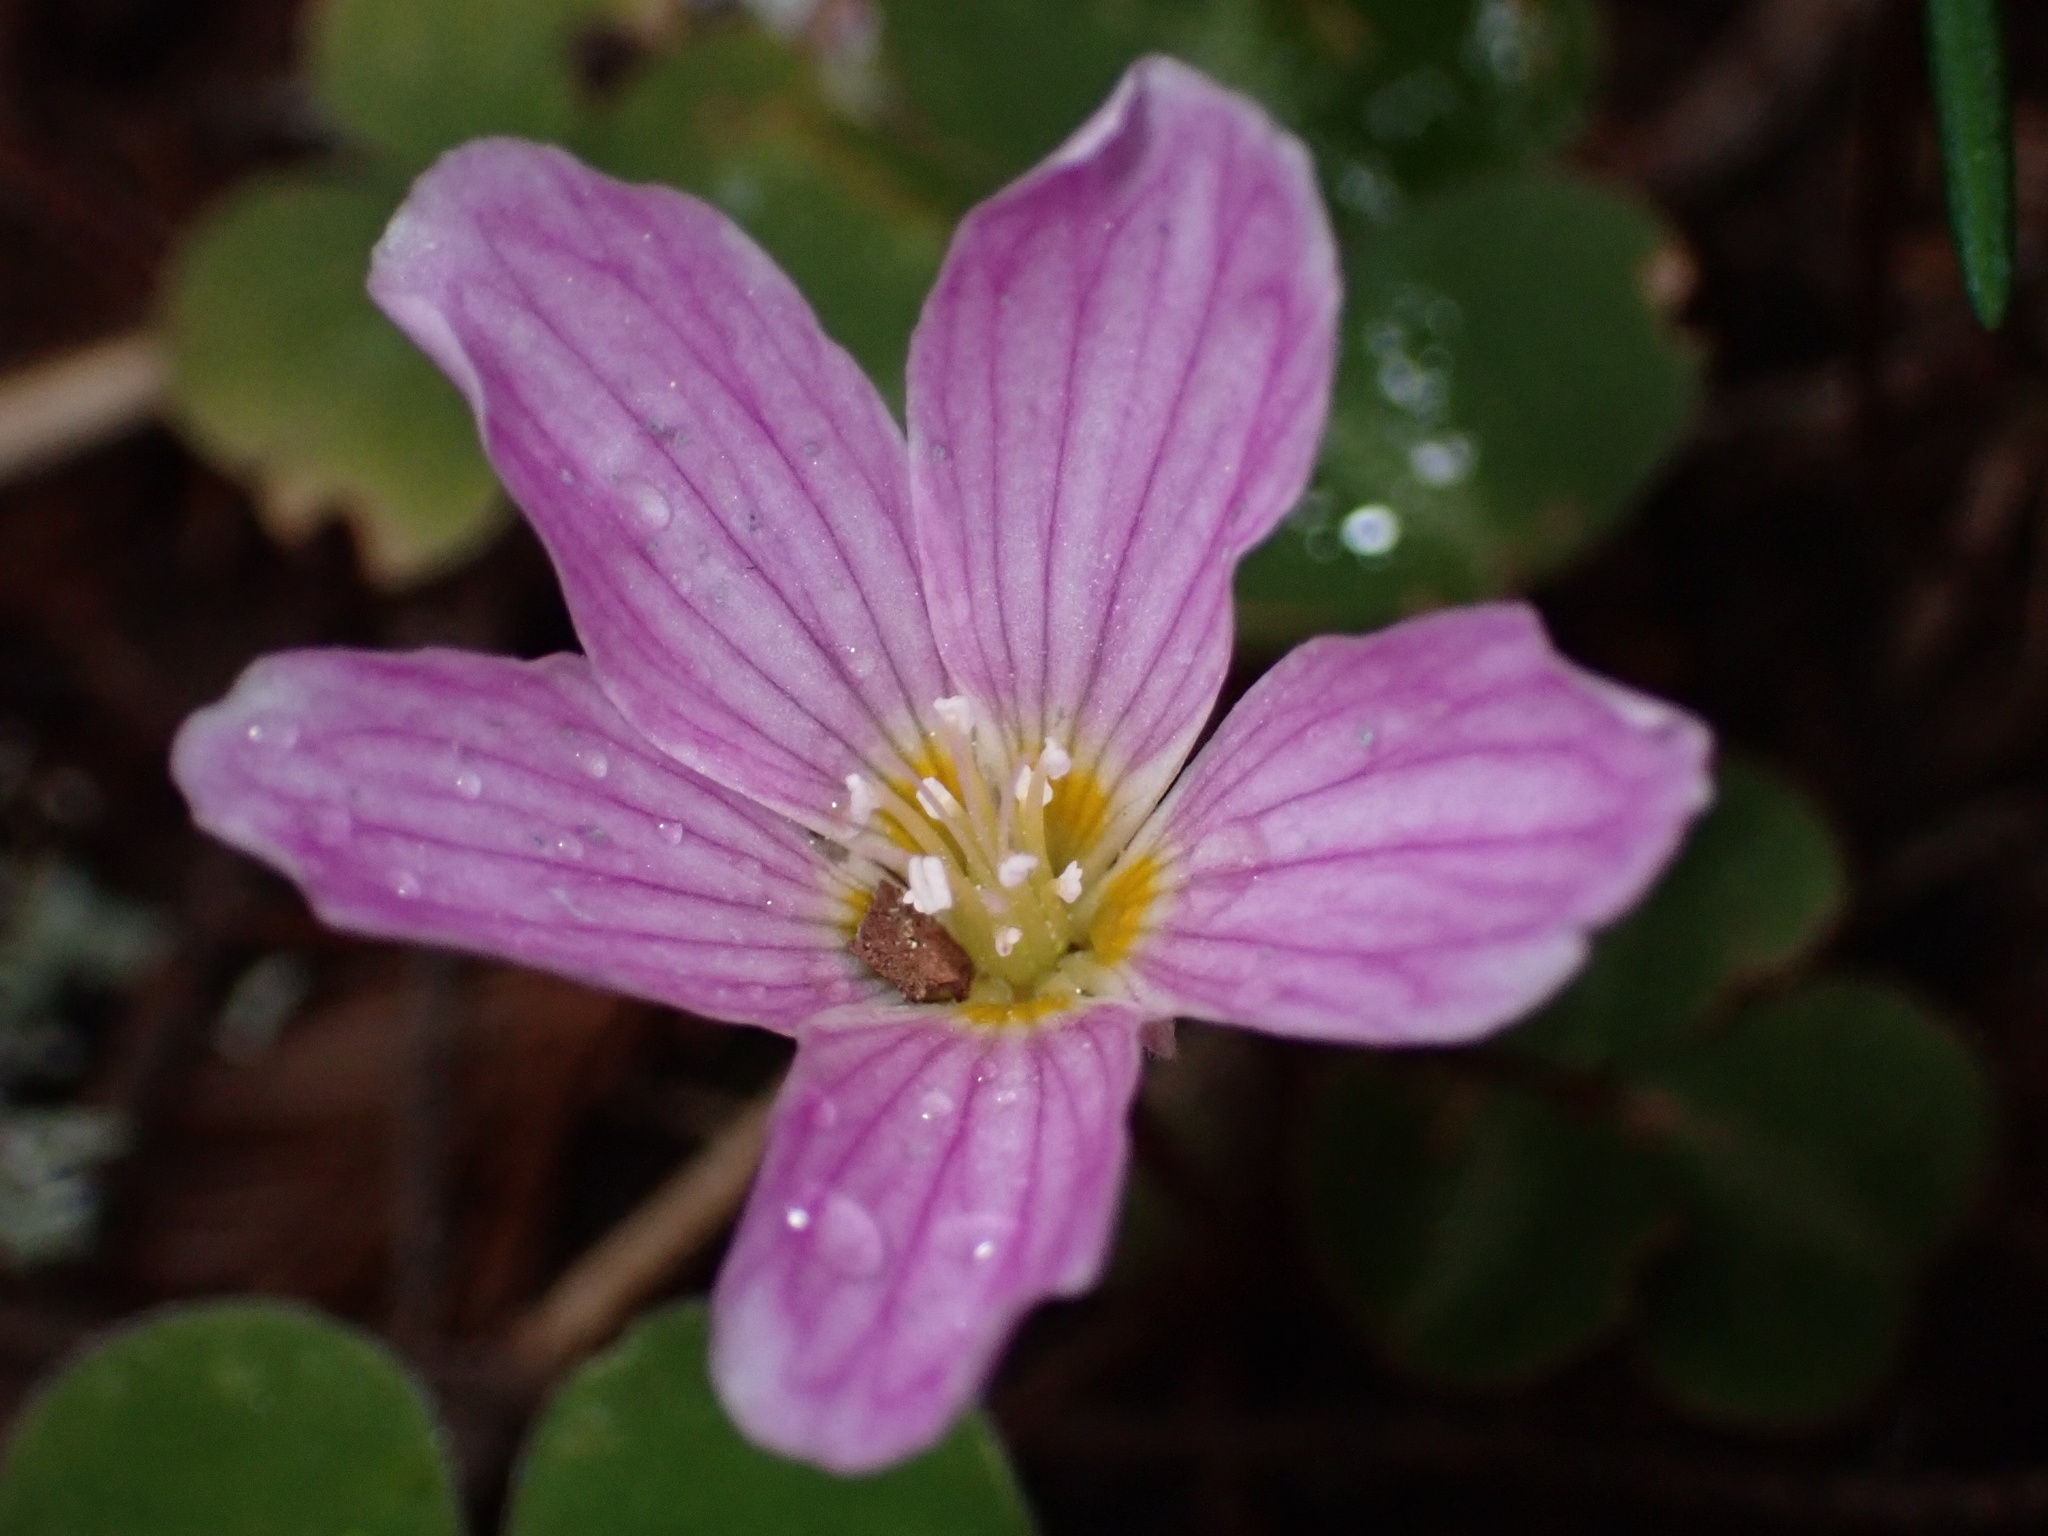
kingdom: Plantae
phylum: Tracheophyta
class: Magnoliopsida
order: Oxalidales
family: Oxalidaceae
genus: Oxalis
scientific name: Oxalis oregana
